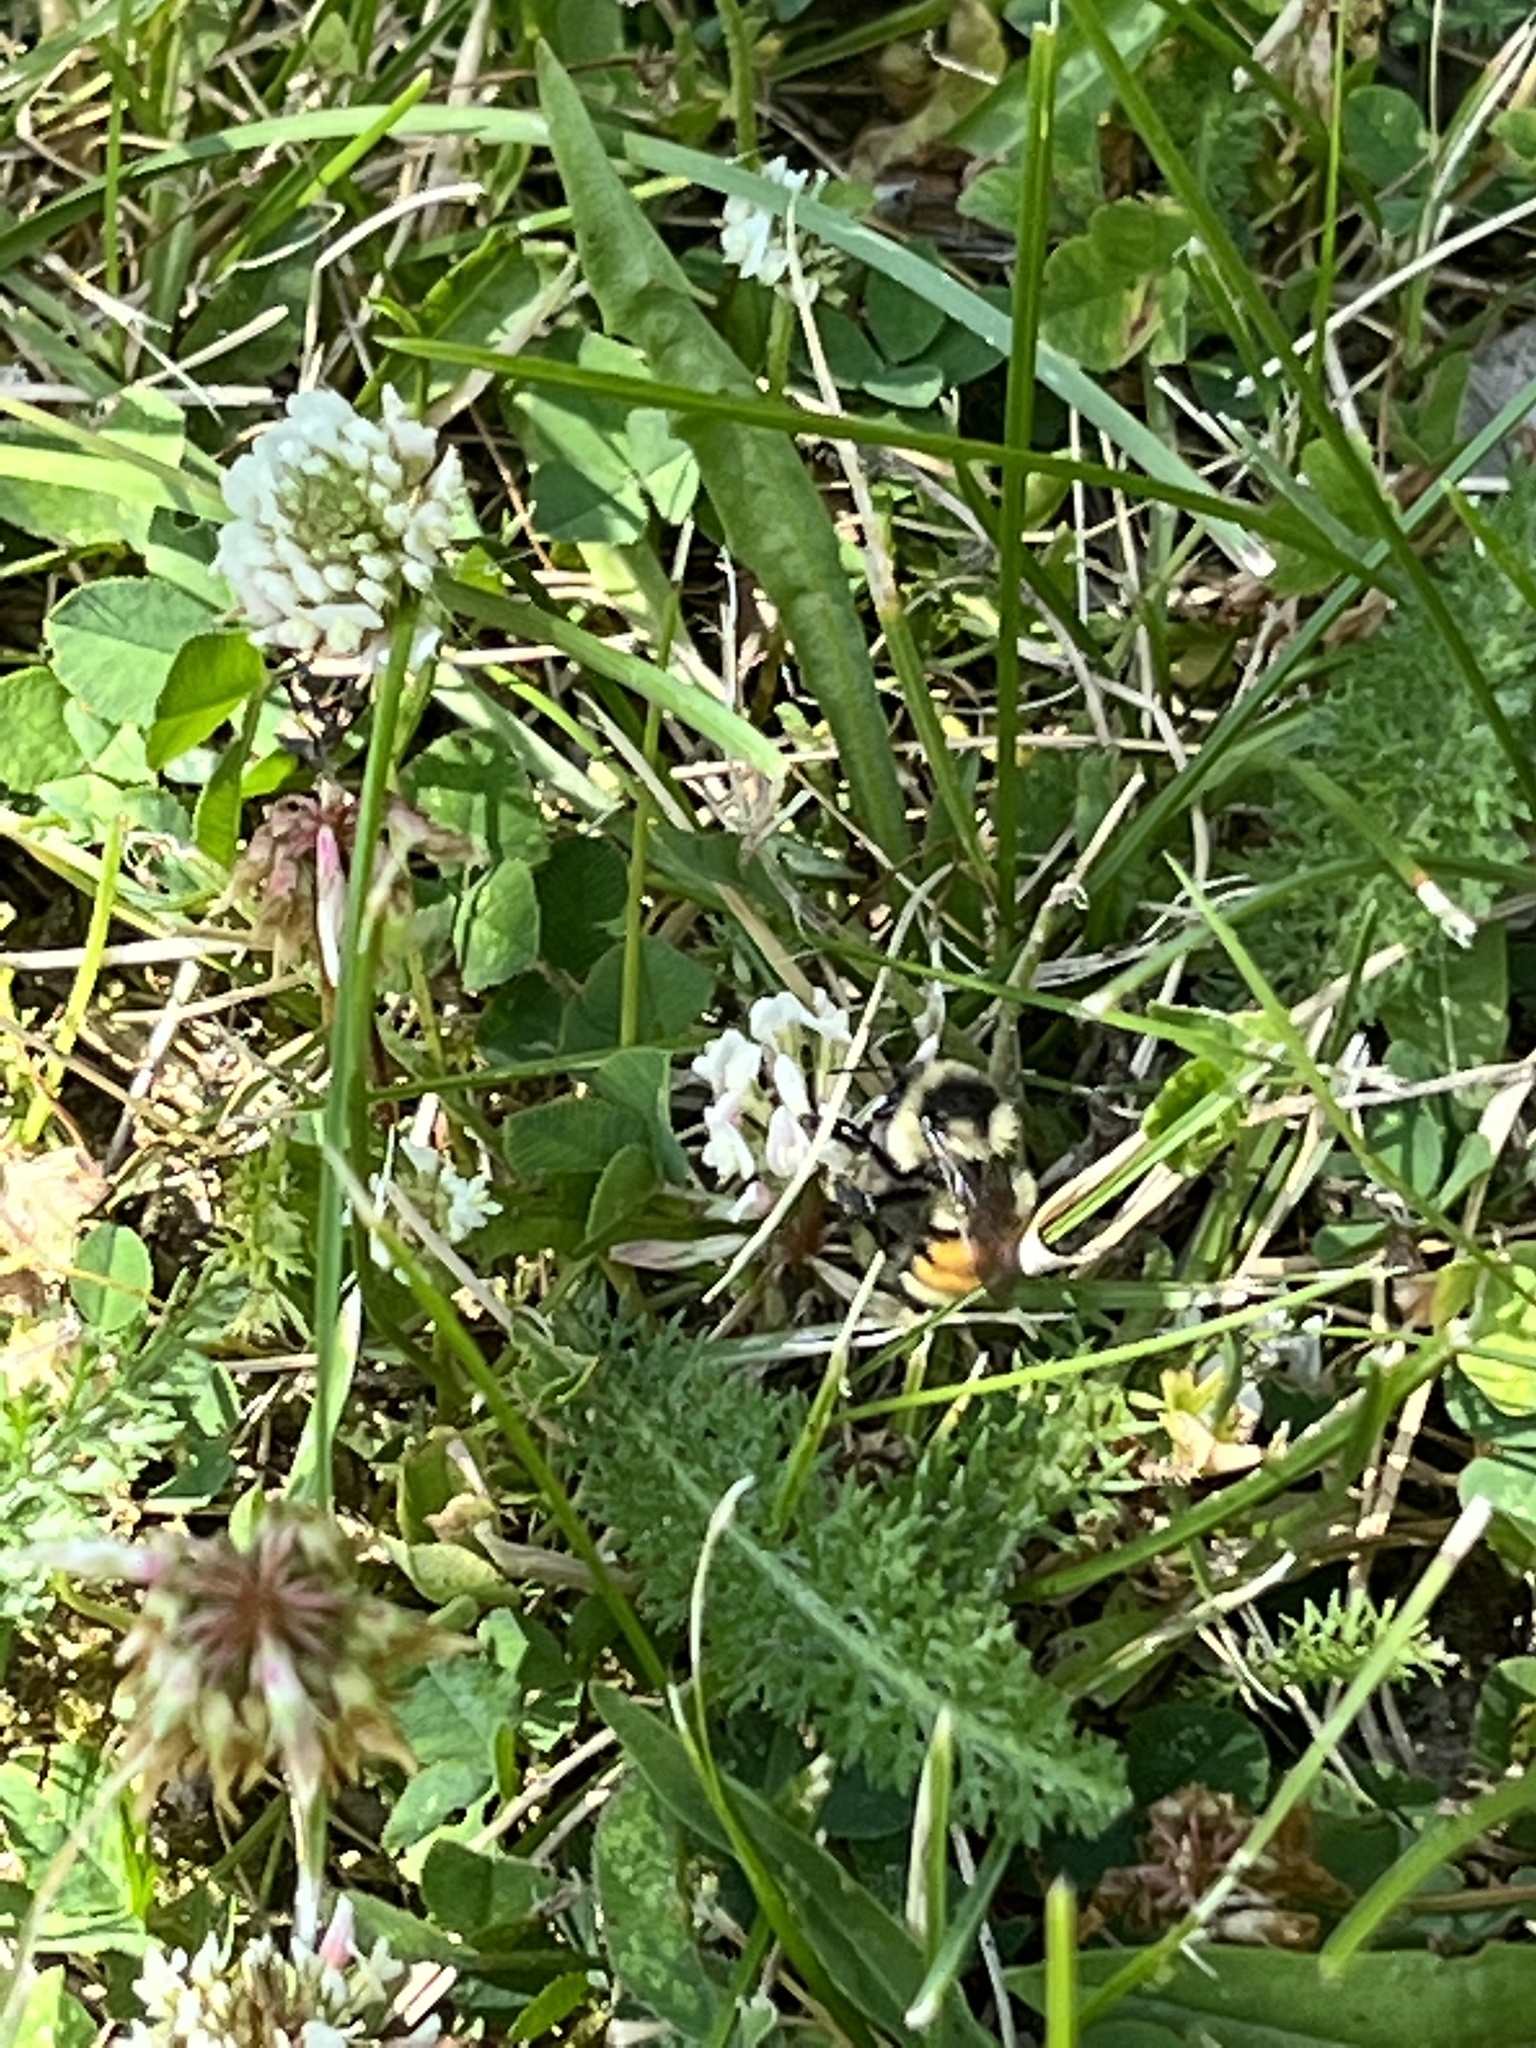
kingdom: Animalia
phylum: Arthropoda
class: Insecta
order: Hymenoptera
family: Apidae
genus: Bombus
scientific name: Bombus ternarius
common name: Tri-colored bumble bee
